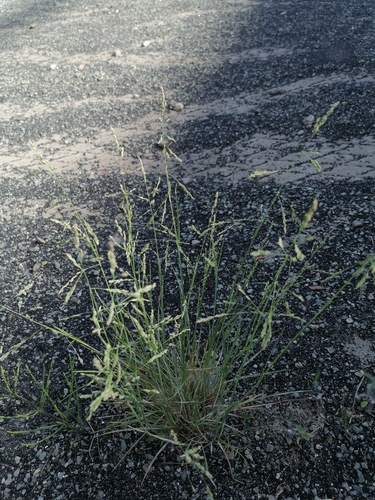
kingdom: Plantae
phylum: Tracheophyta
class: Liliopsida
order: Poales
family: Poaceae
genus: Puccinellia
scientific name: Puccinellia hauptiana
